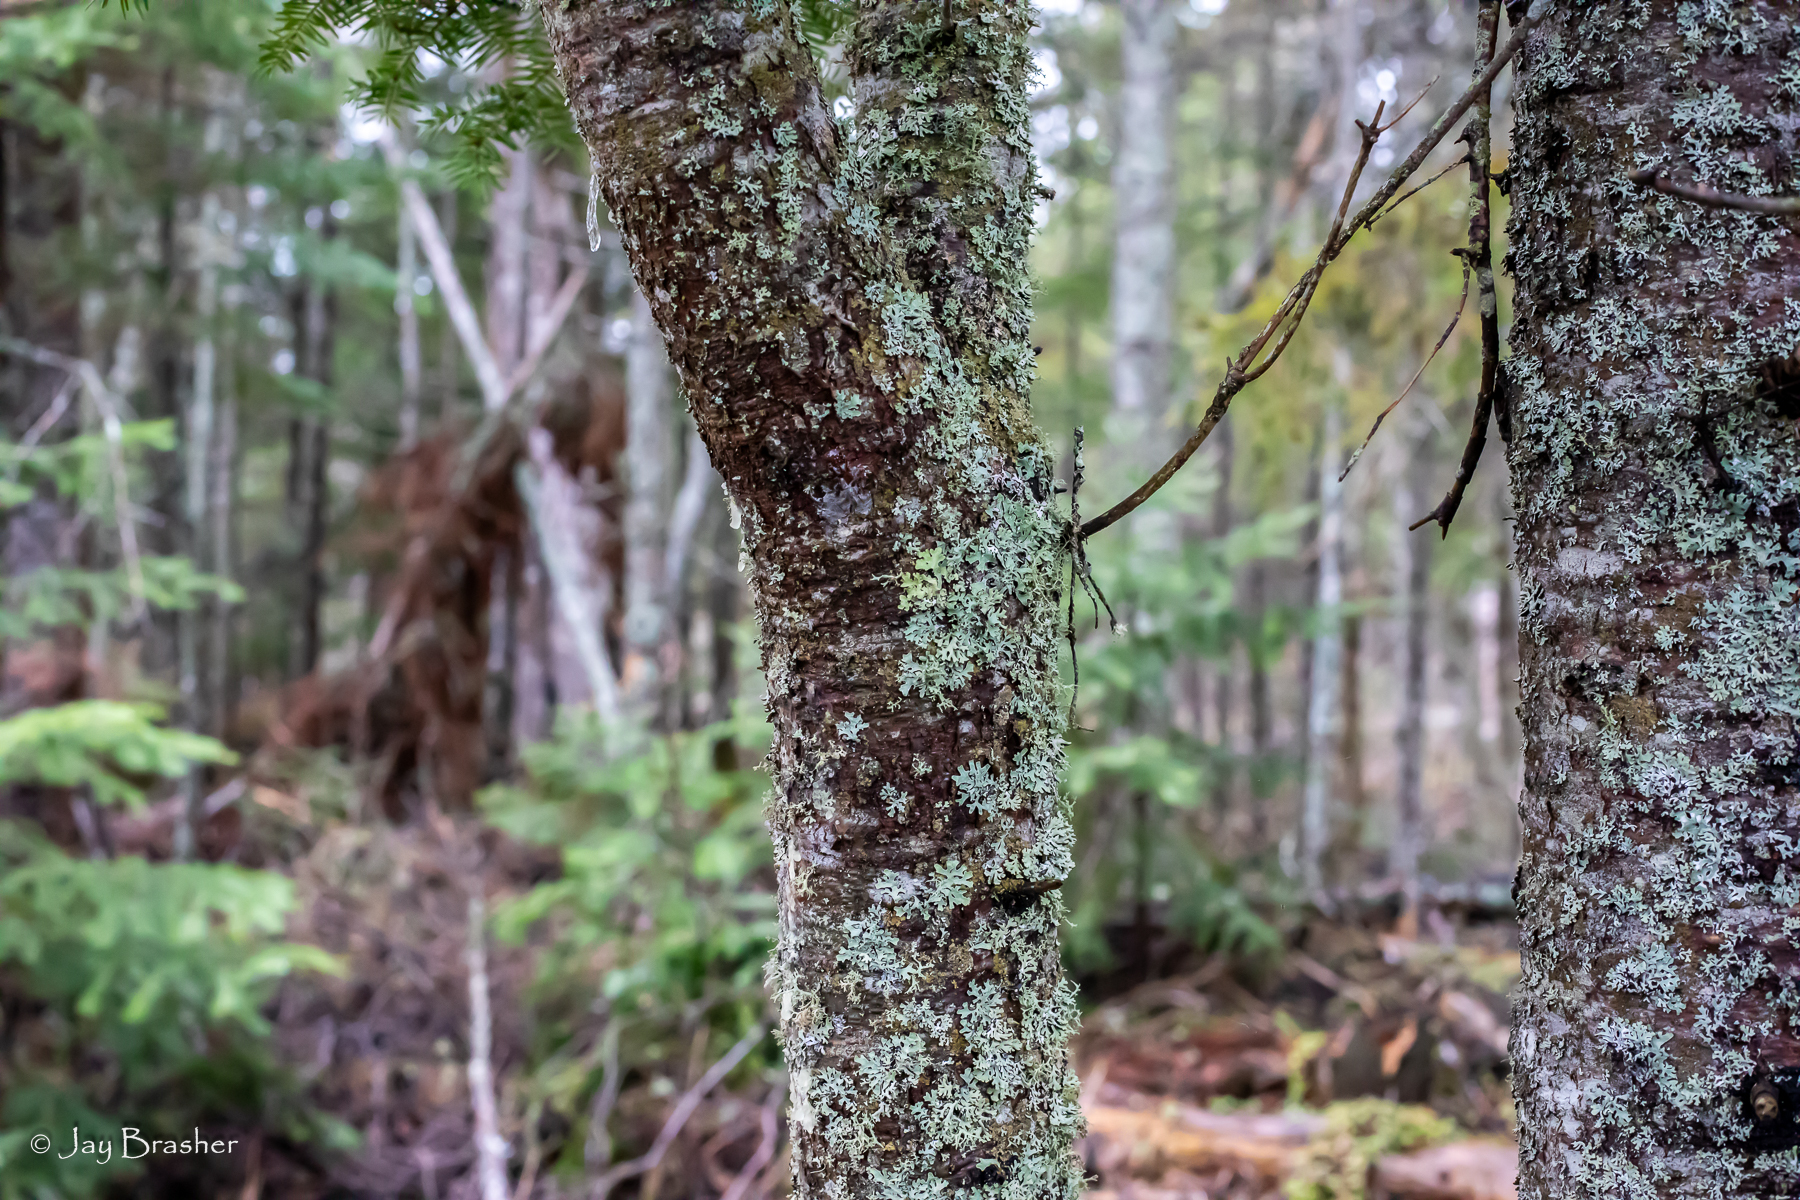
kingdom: Plantae
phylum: Tracheophyta
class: Pinopsida
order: Pinales
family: Pinaceae
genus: Abies
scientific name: Abies balsamea
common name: Balsam fir
